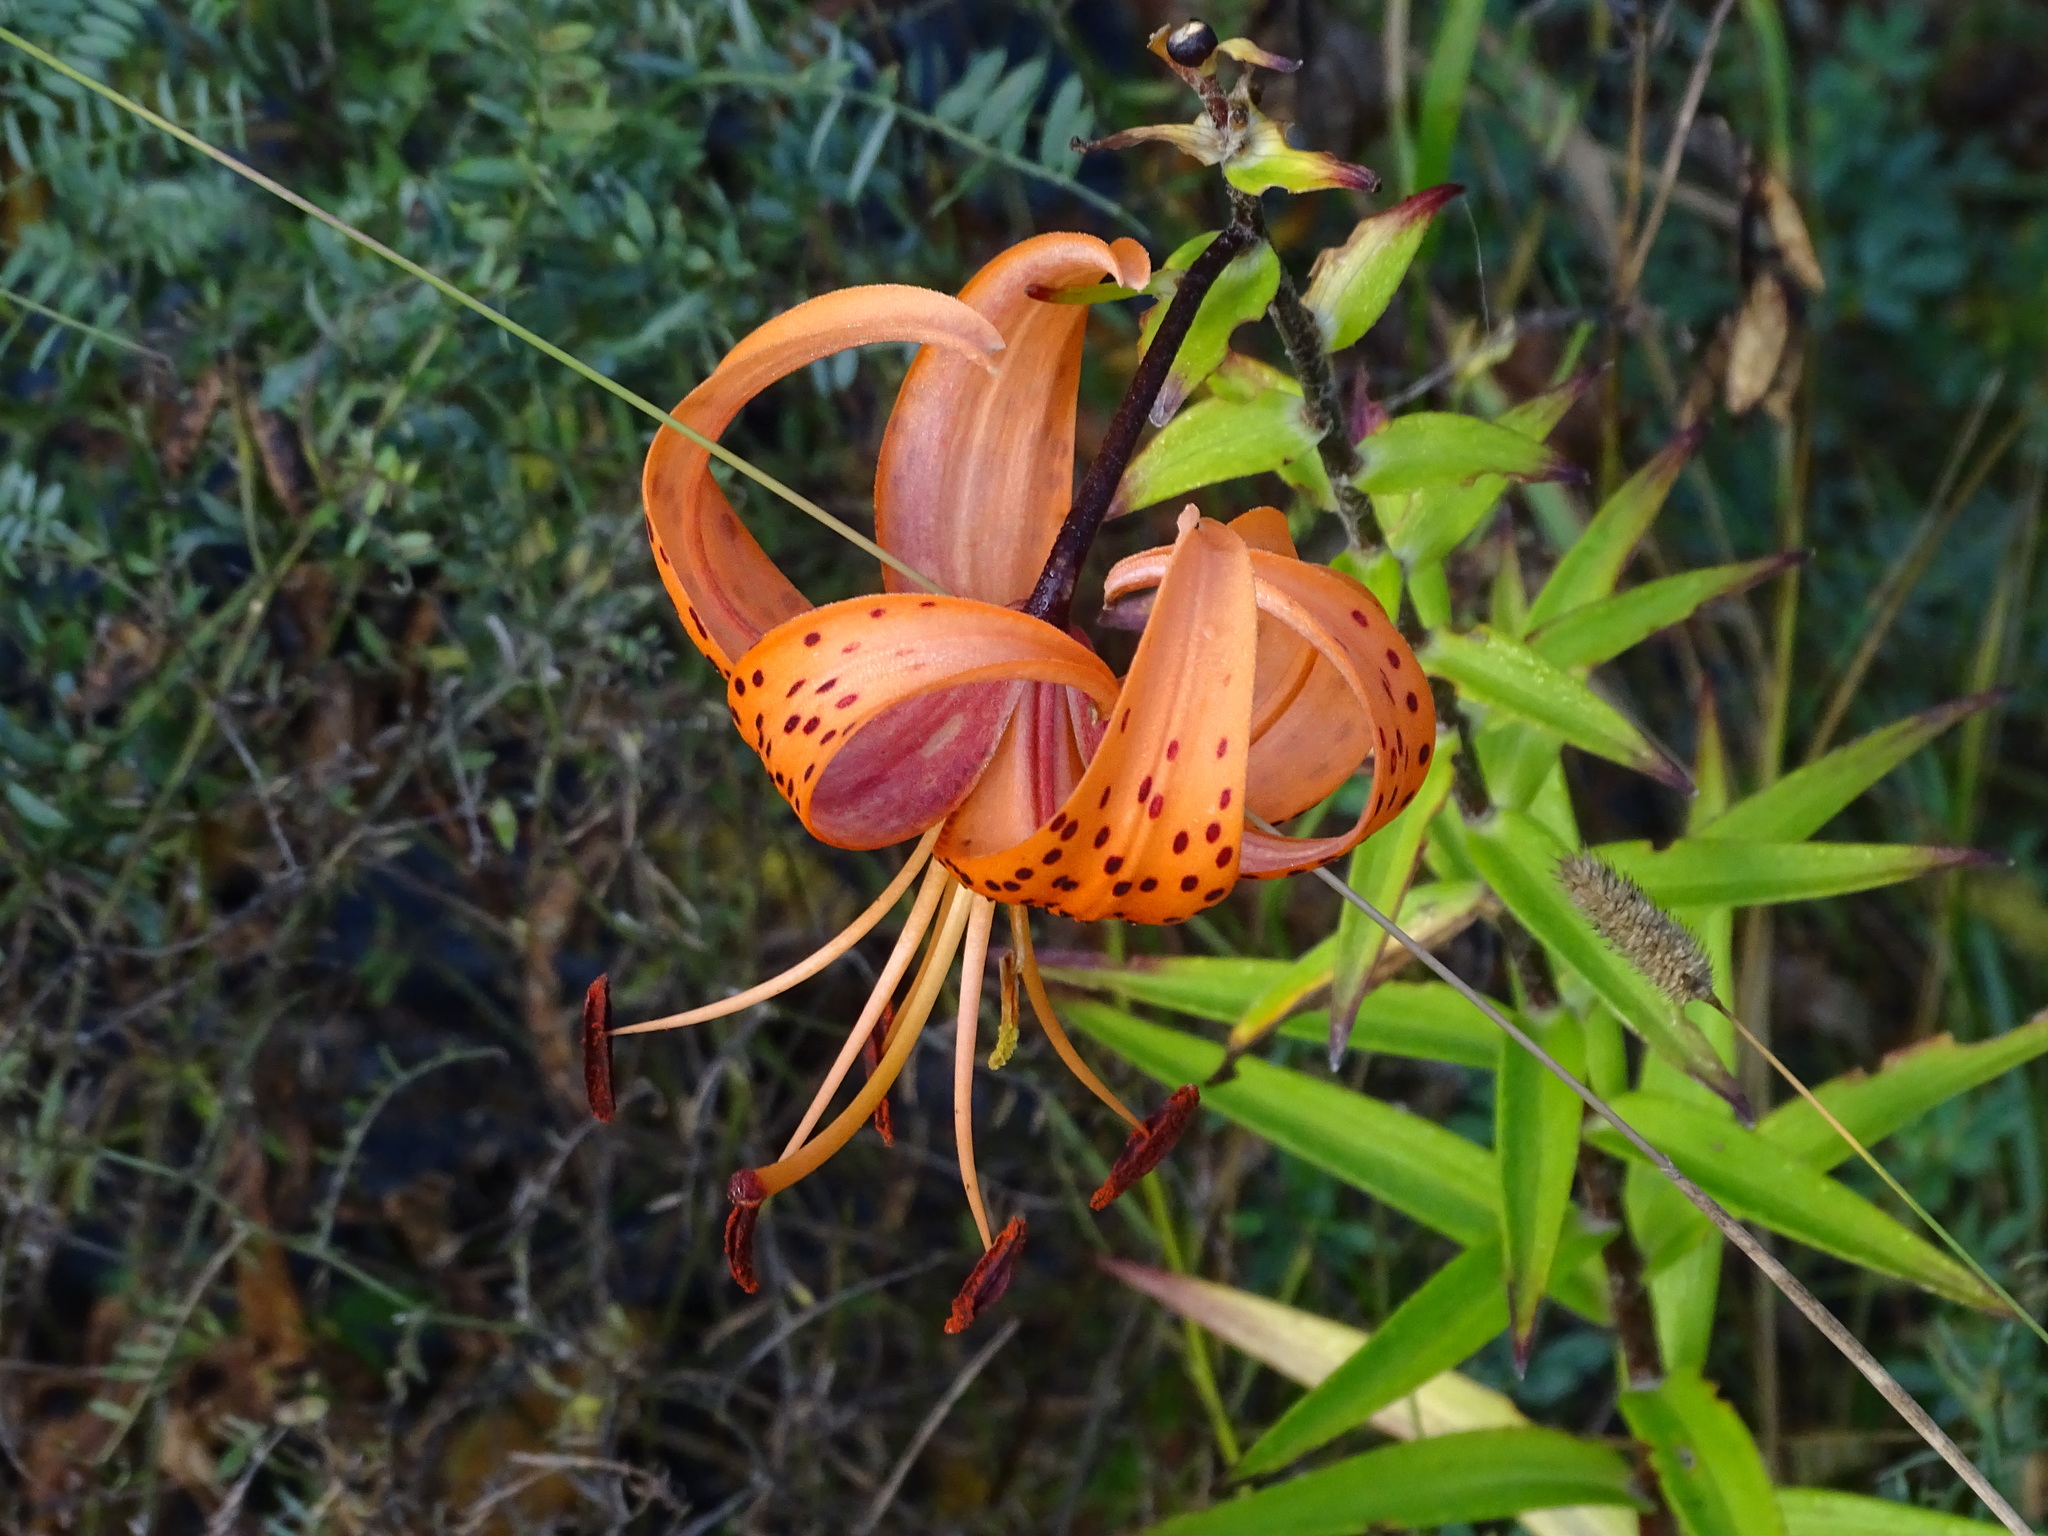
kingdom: Plantae
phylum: Tracheophyta
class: Liliopsida
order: Liliales
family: Liliaceae
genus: Lilium
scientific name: Lilium lancifolium
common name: Tiger lily
